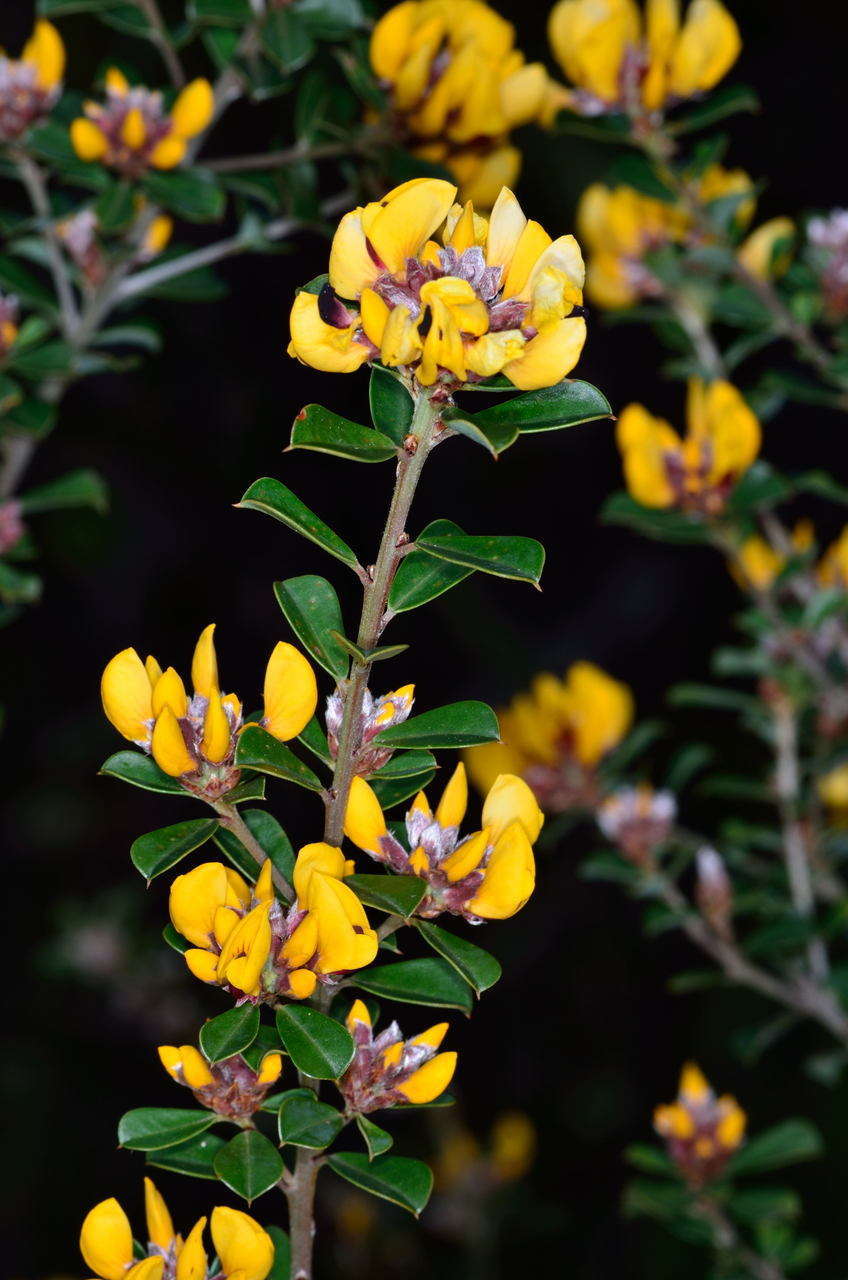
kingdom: Plantae
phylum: Tracheophyta
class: Magnoliopsida
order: Fabales
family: Fabaceae
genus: Pultenaea
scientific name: Pultenaea daphnoides
